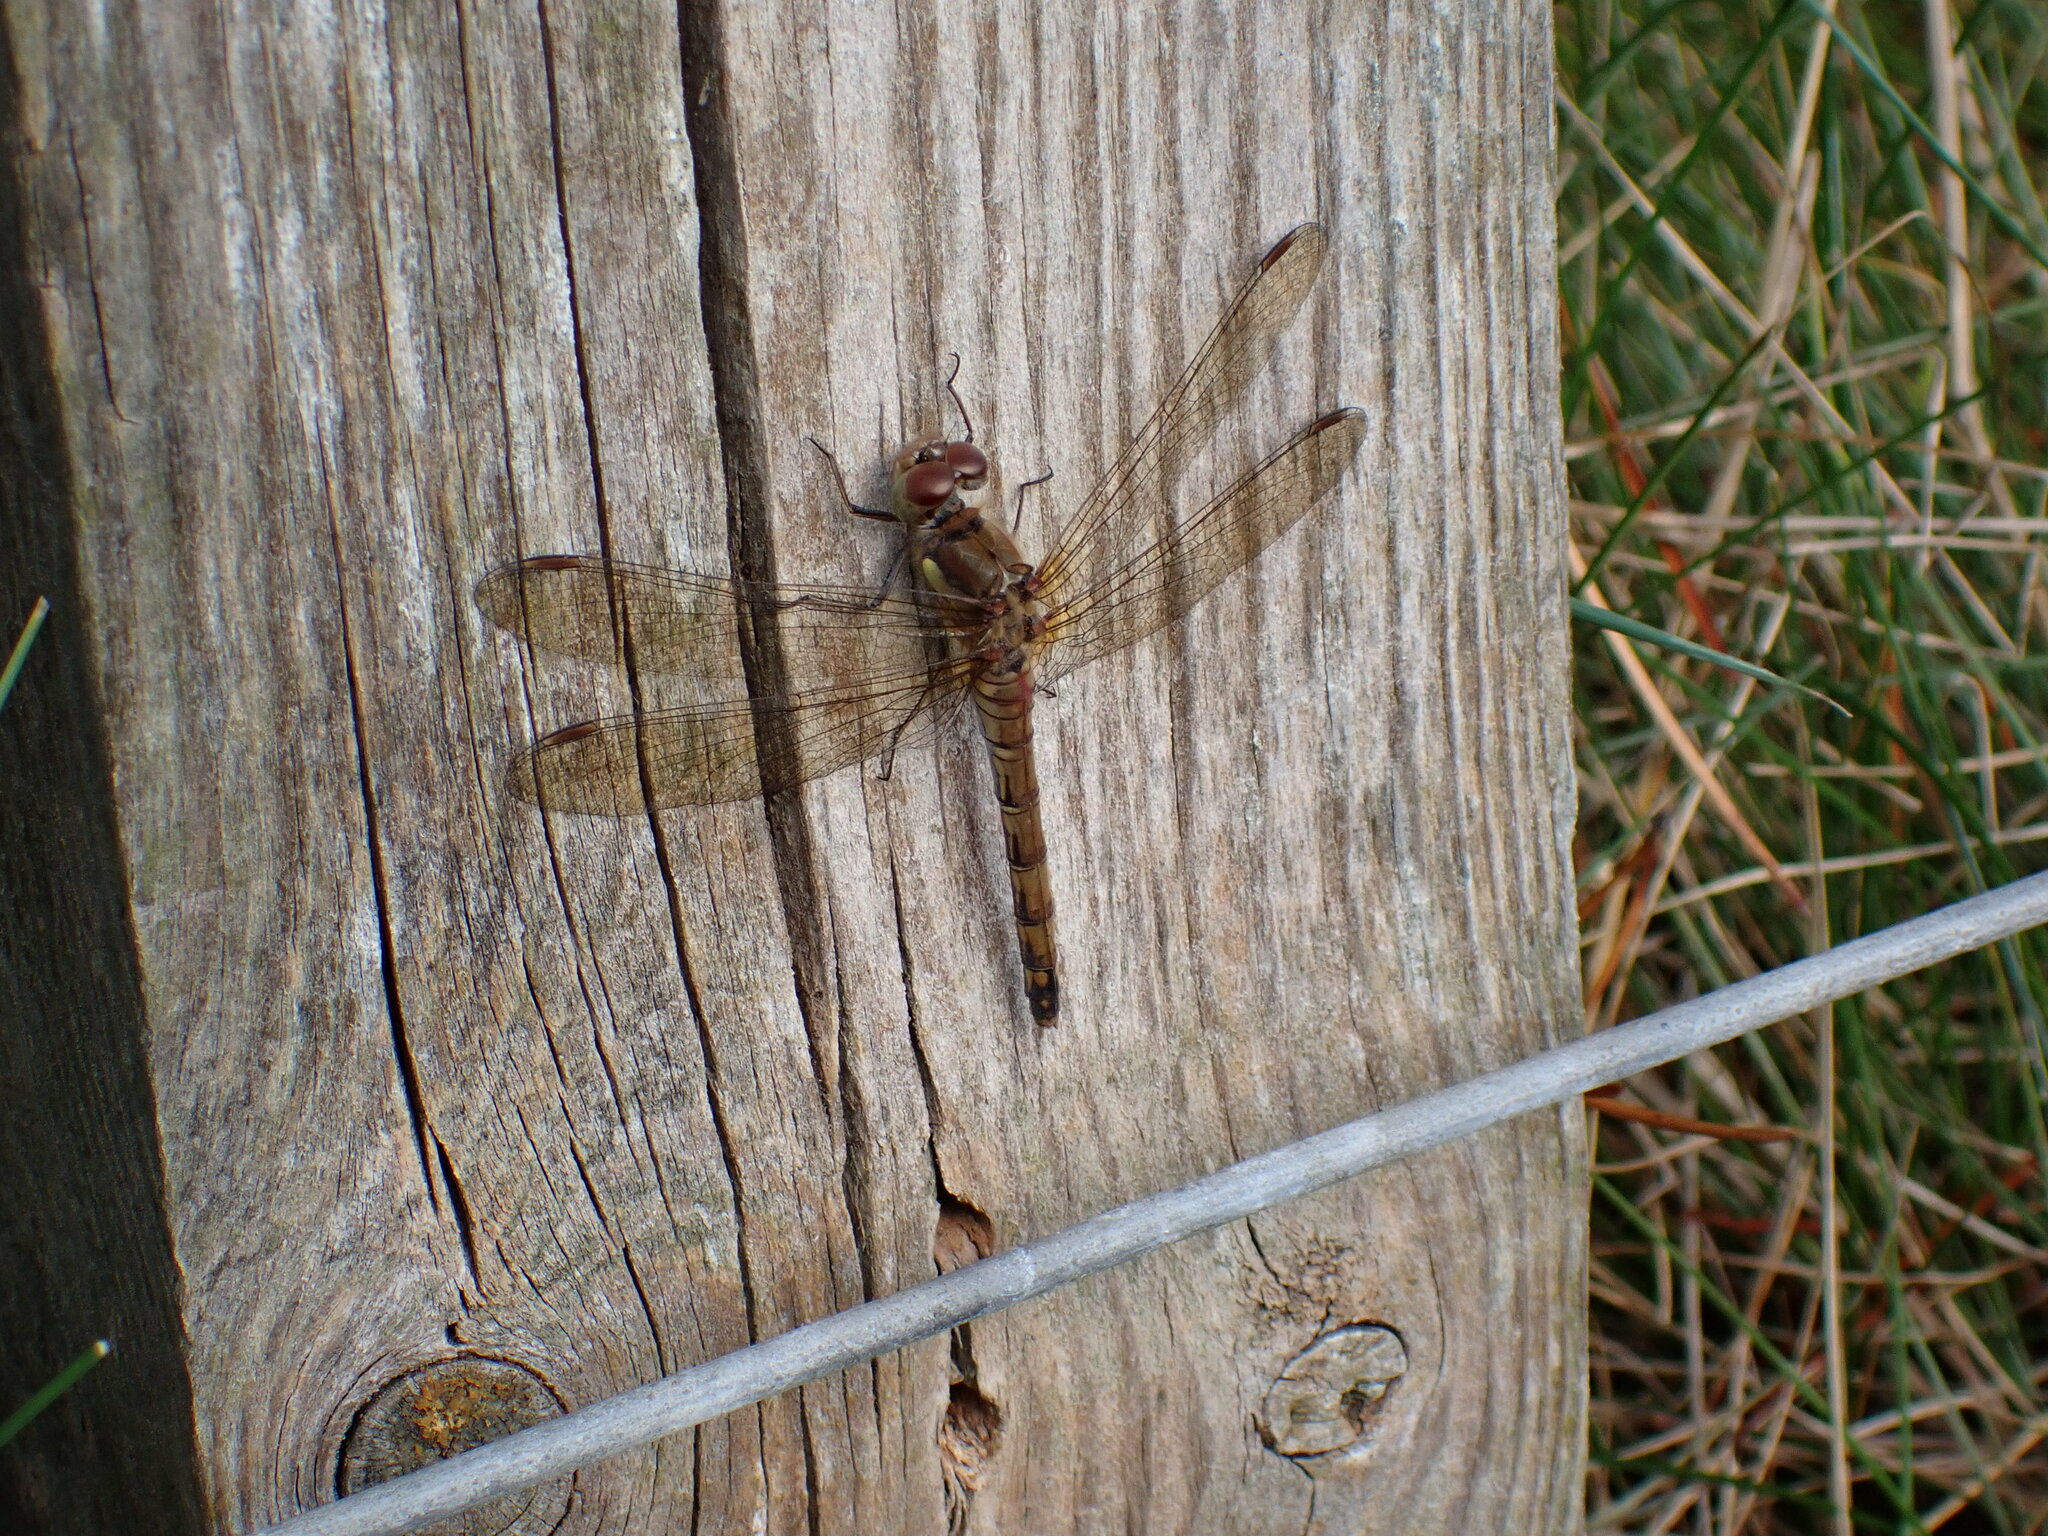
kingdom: Animalia
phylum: Arthropoda
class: Insecta
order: Odonata
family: Libellulidae
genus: Sympetrum
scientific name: Sympetrum striolatum
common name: Common darter
